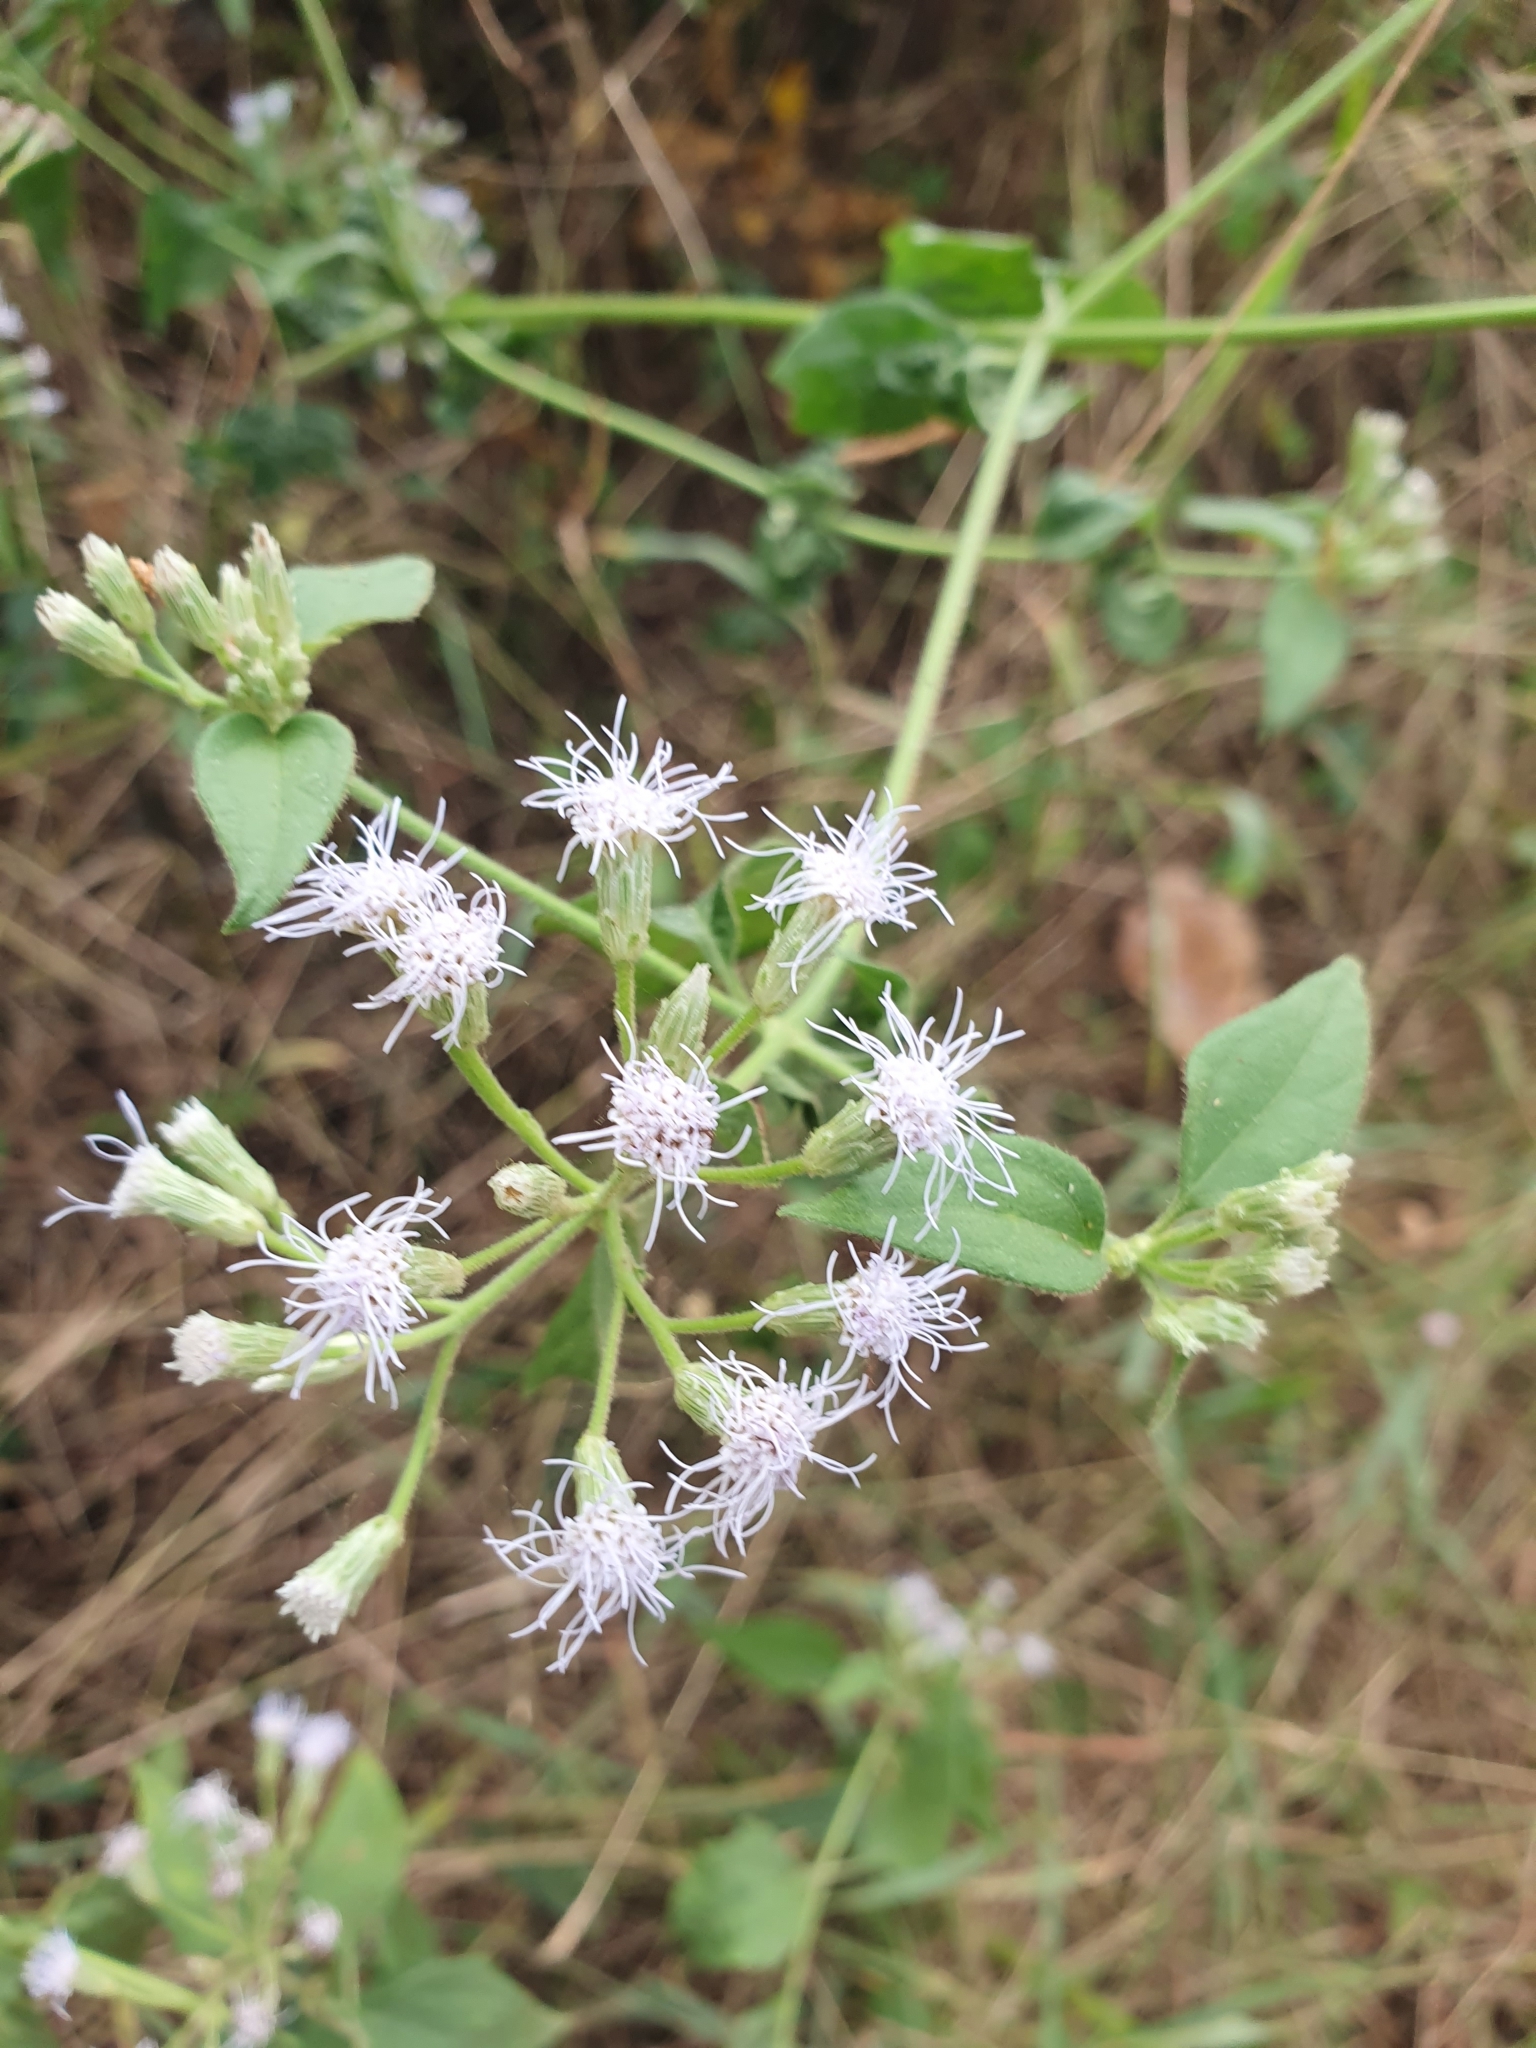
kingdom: Plantae
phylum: Tracheophyta
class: Magnoliopsida
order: Asterales
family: Asteraceae
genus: Chromolaena
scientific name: Chromolaena odorata
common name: Siamweed
